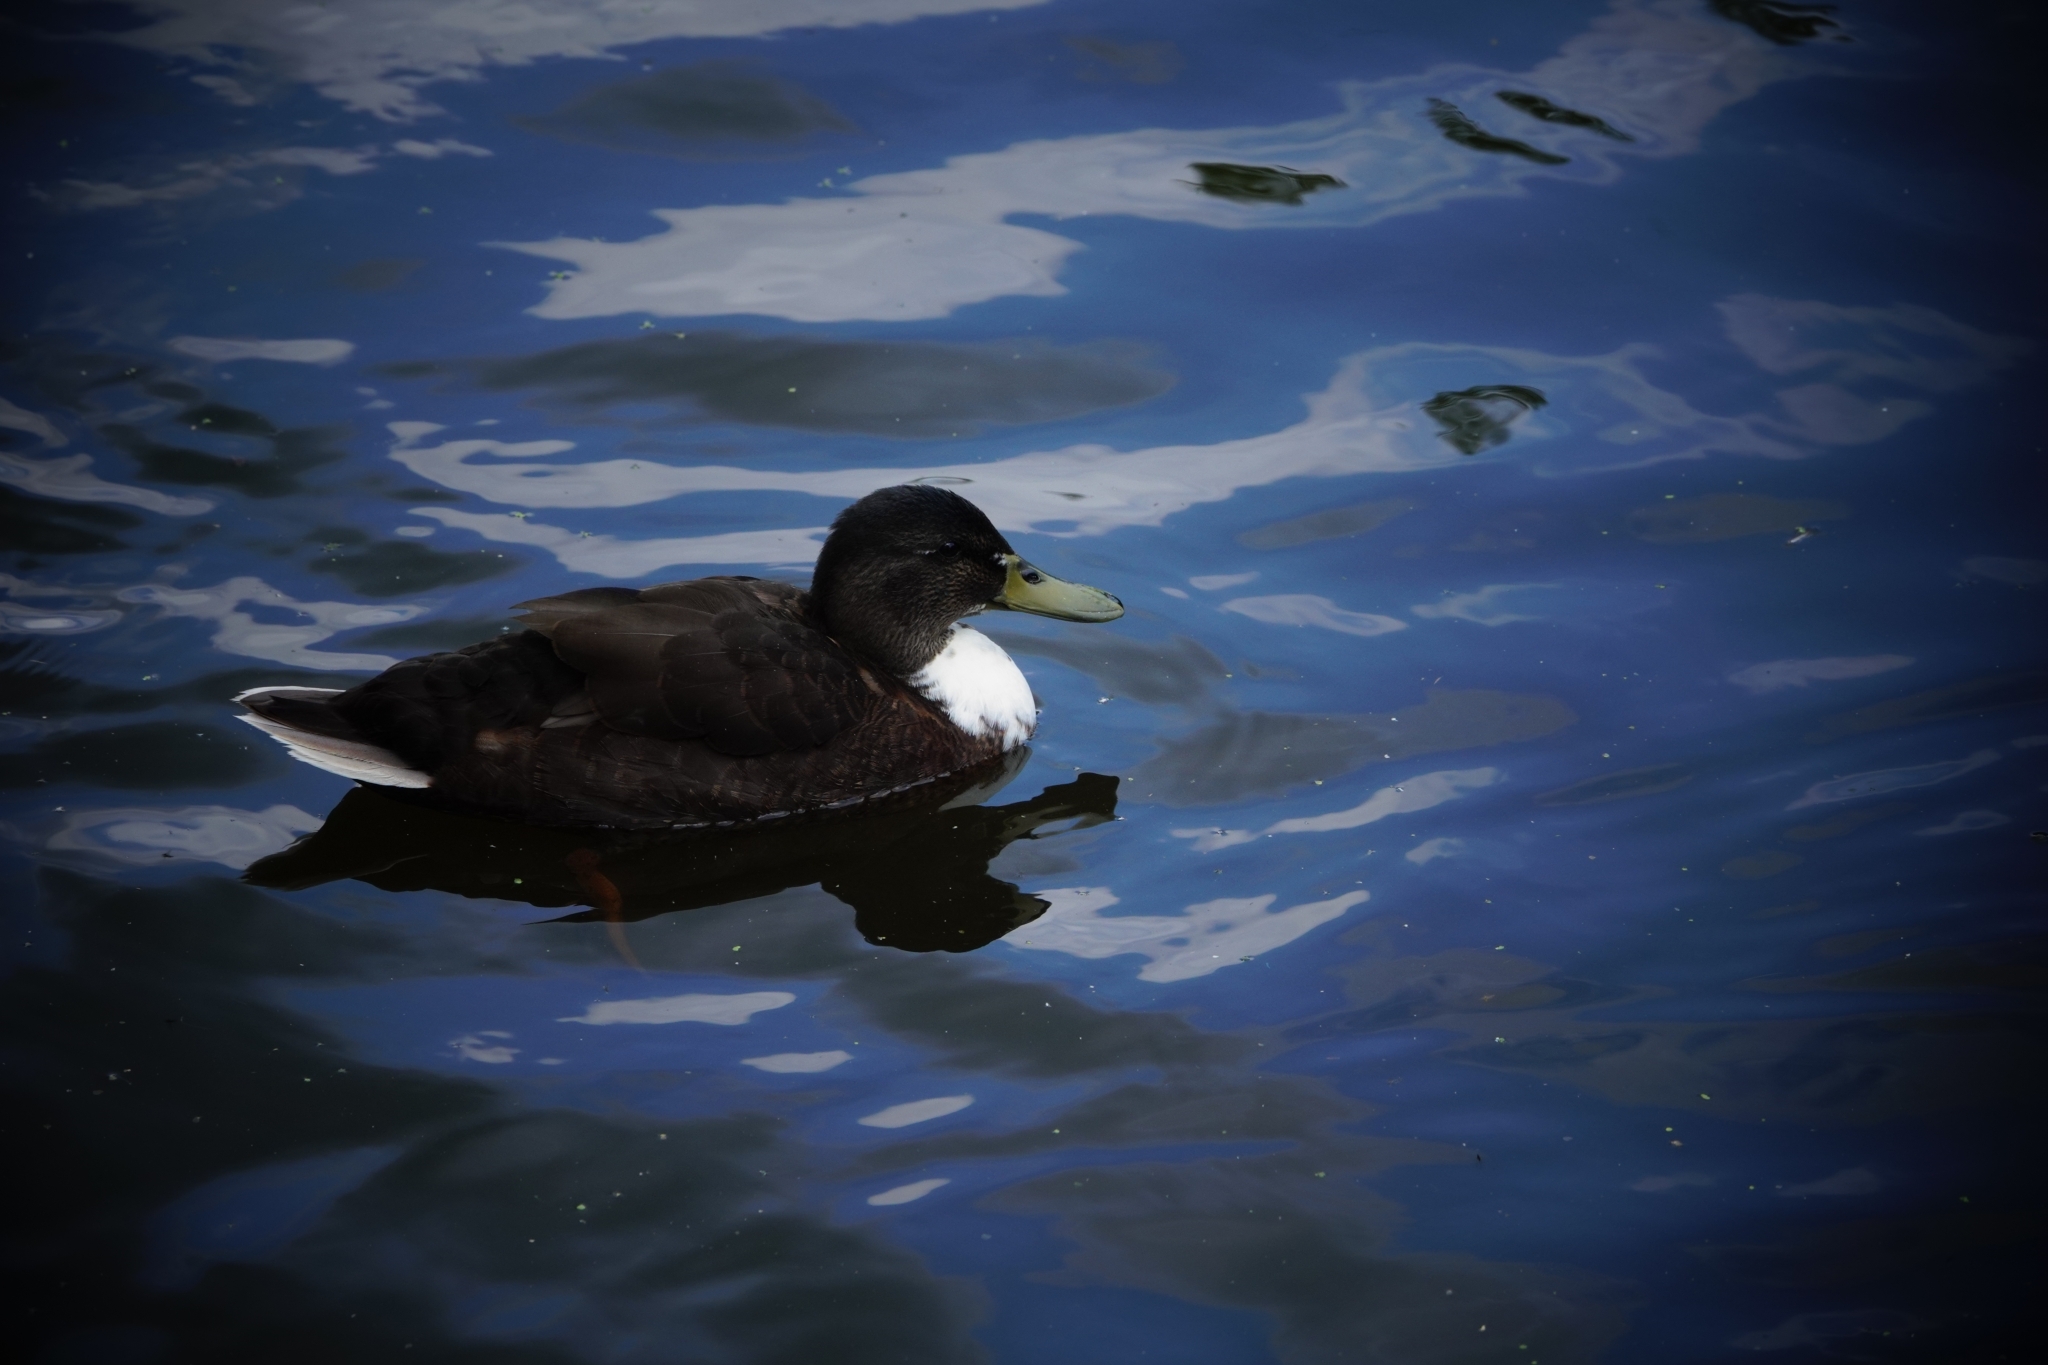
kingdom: Animalia
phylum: Chordata
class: Aves
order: Anseriformes
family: Anatidae
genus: Anas
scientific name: Anas platyrhynchos
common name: Mallard
